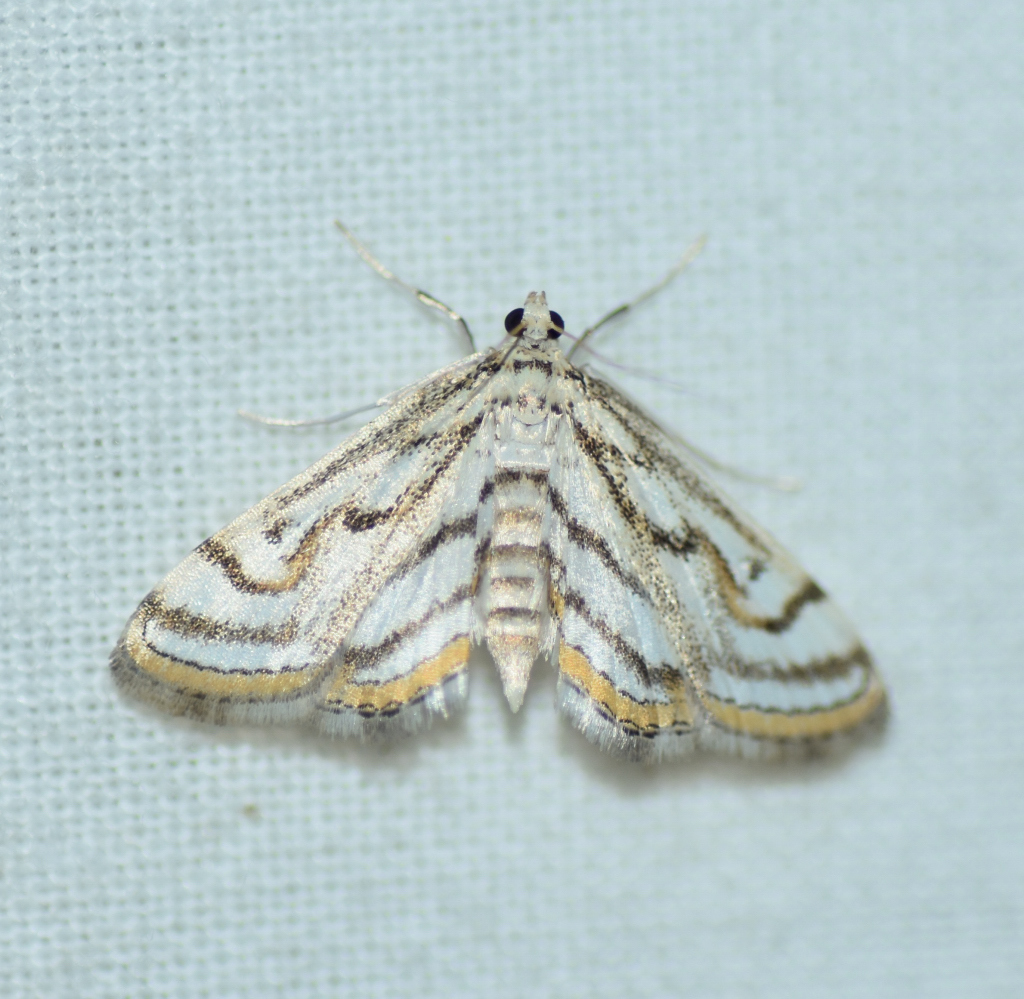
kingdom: Animalia
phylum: Arthropoda
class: Insecta
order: Lepidoptera
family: Crambidae
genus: Parapoynx
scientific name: Parapoynx badiusalis
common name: Chestnut-marked pondweed moth
